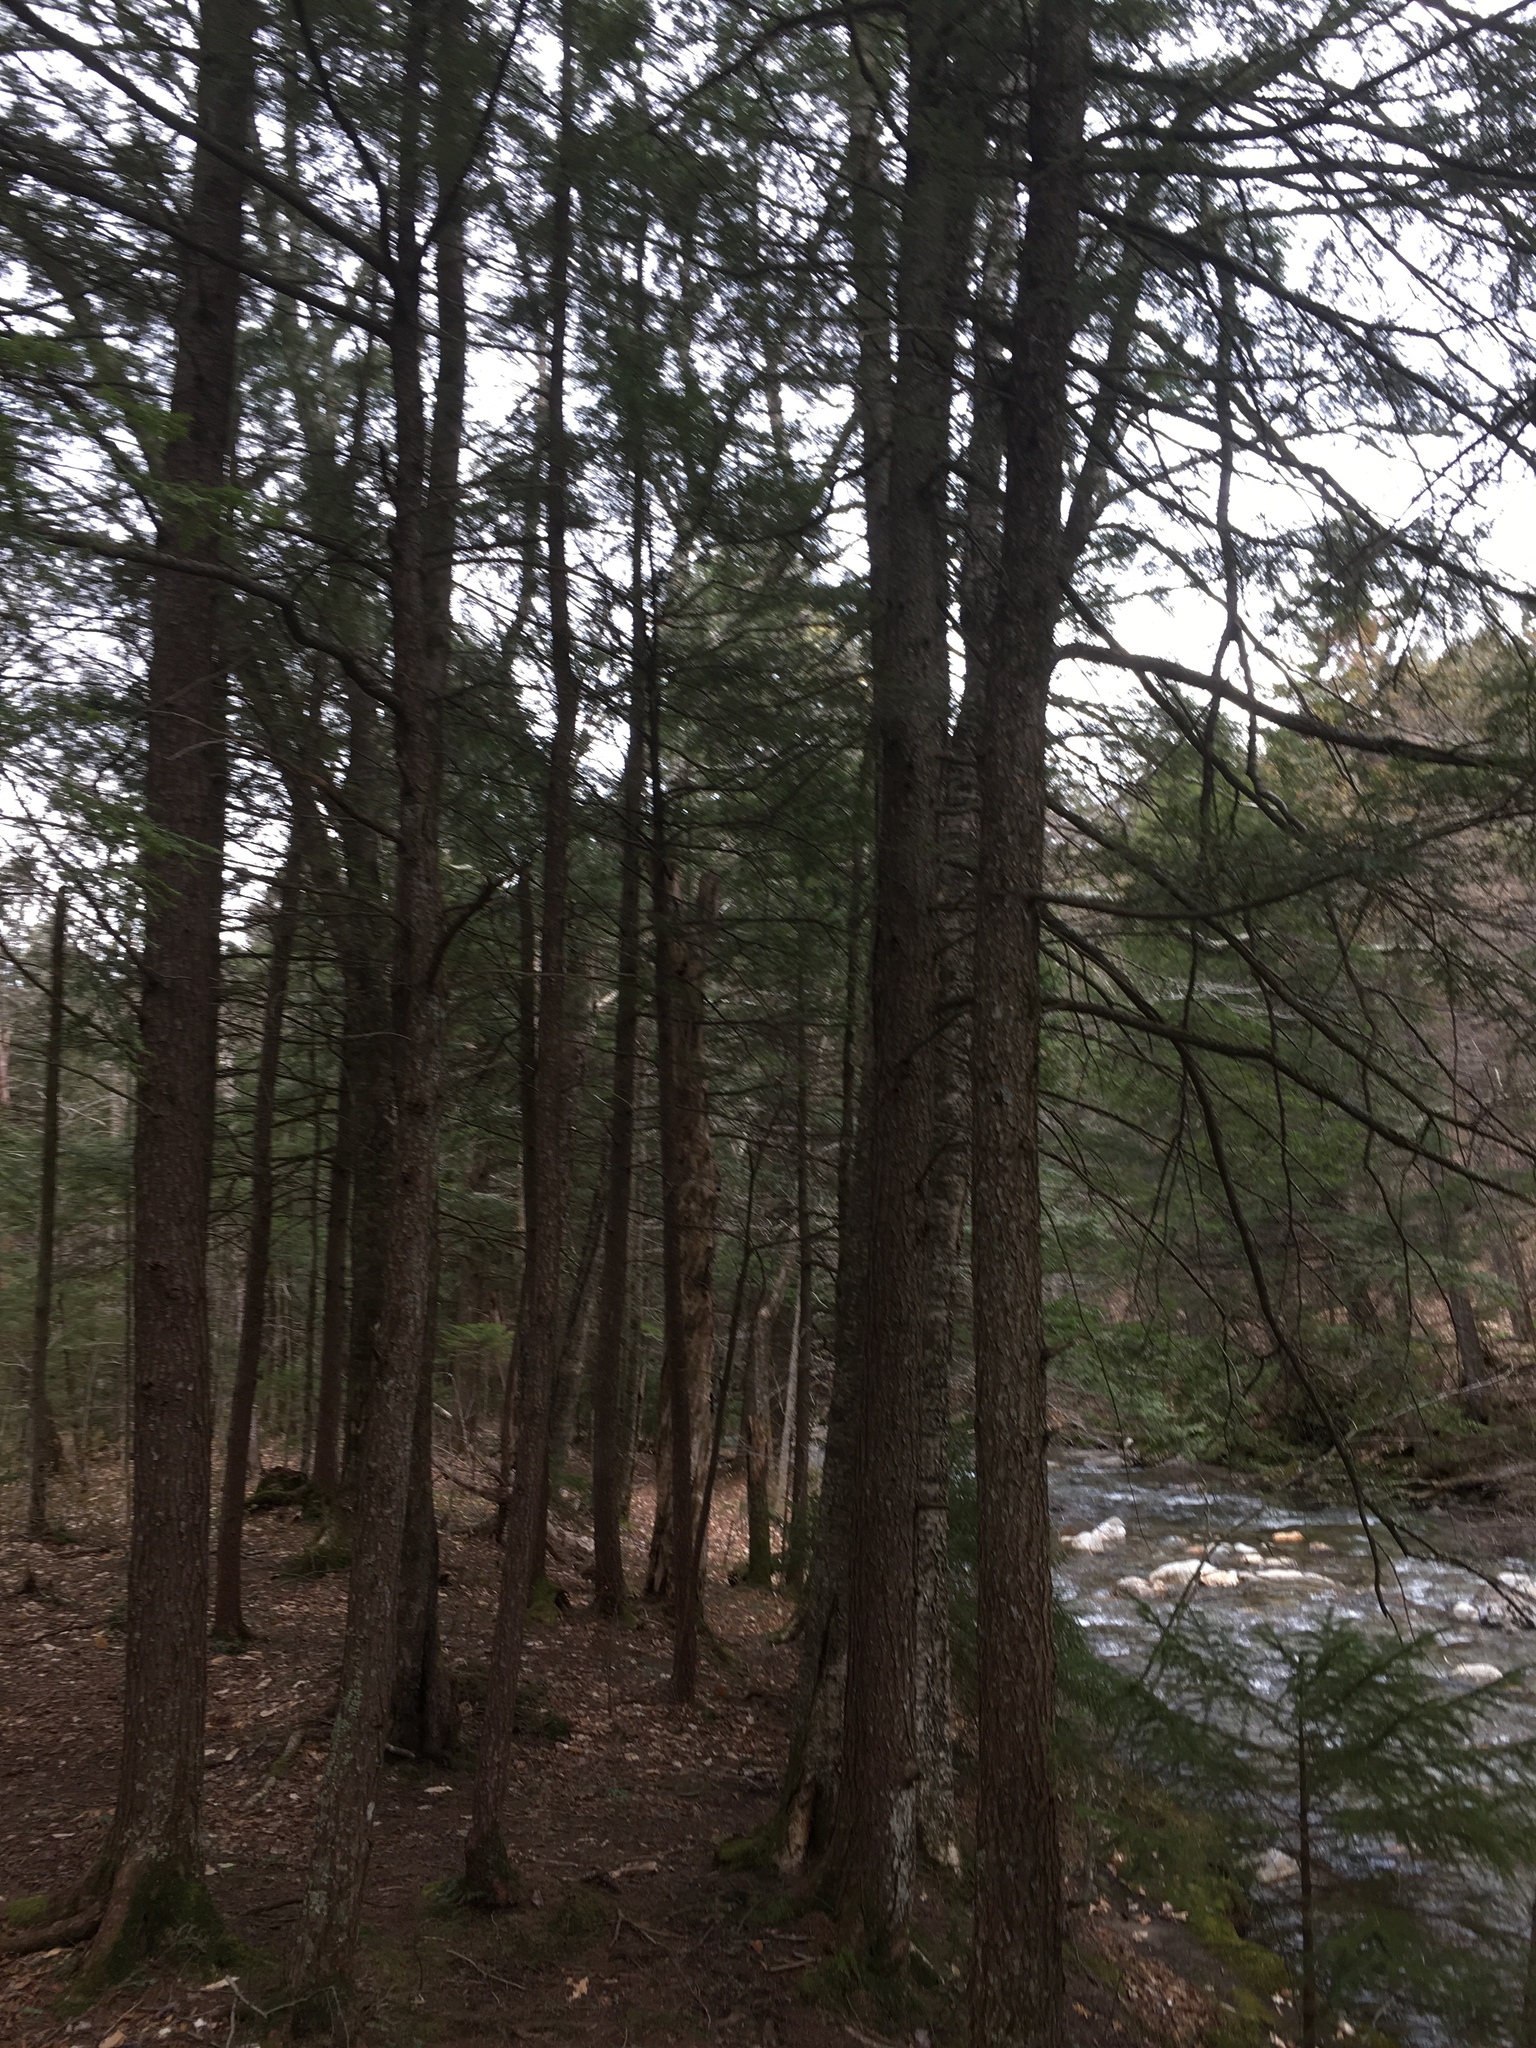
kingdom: Plantae
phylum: Tracheophyta
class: Pinopsida
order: Pinales
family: Pinaceae
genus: Tsuga
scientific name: Tsuga canadensis
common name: Eastern hemlock
